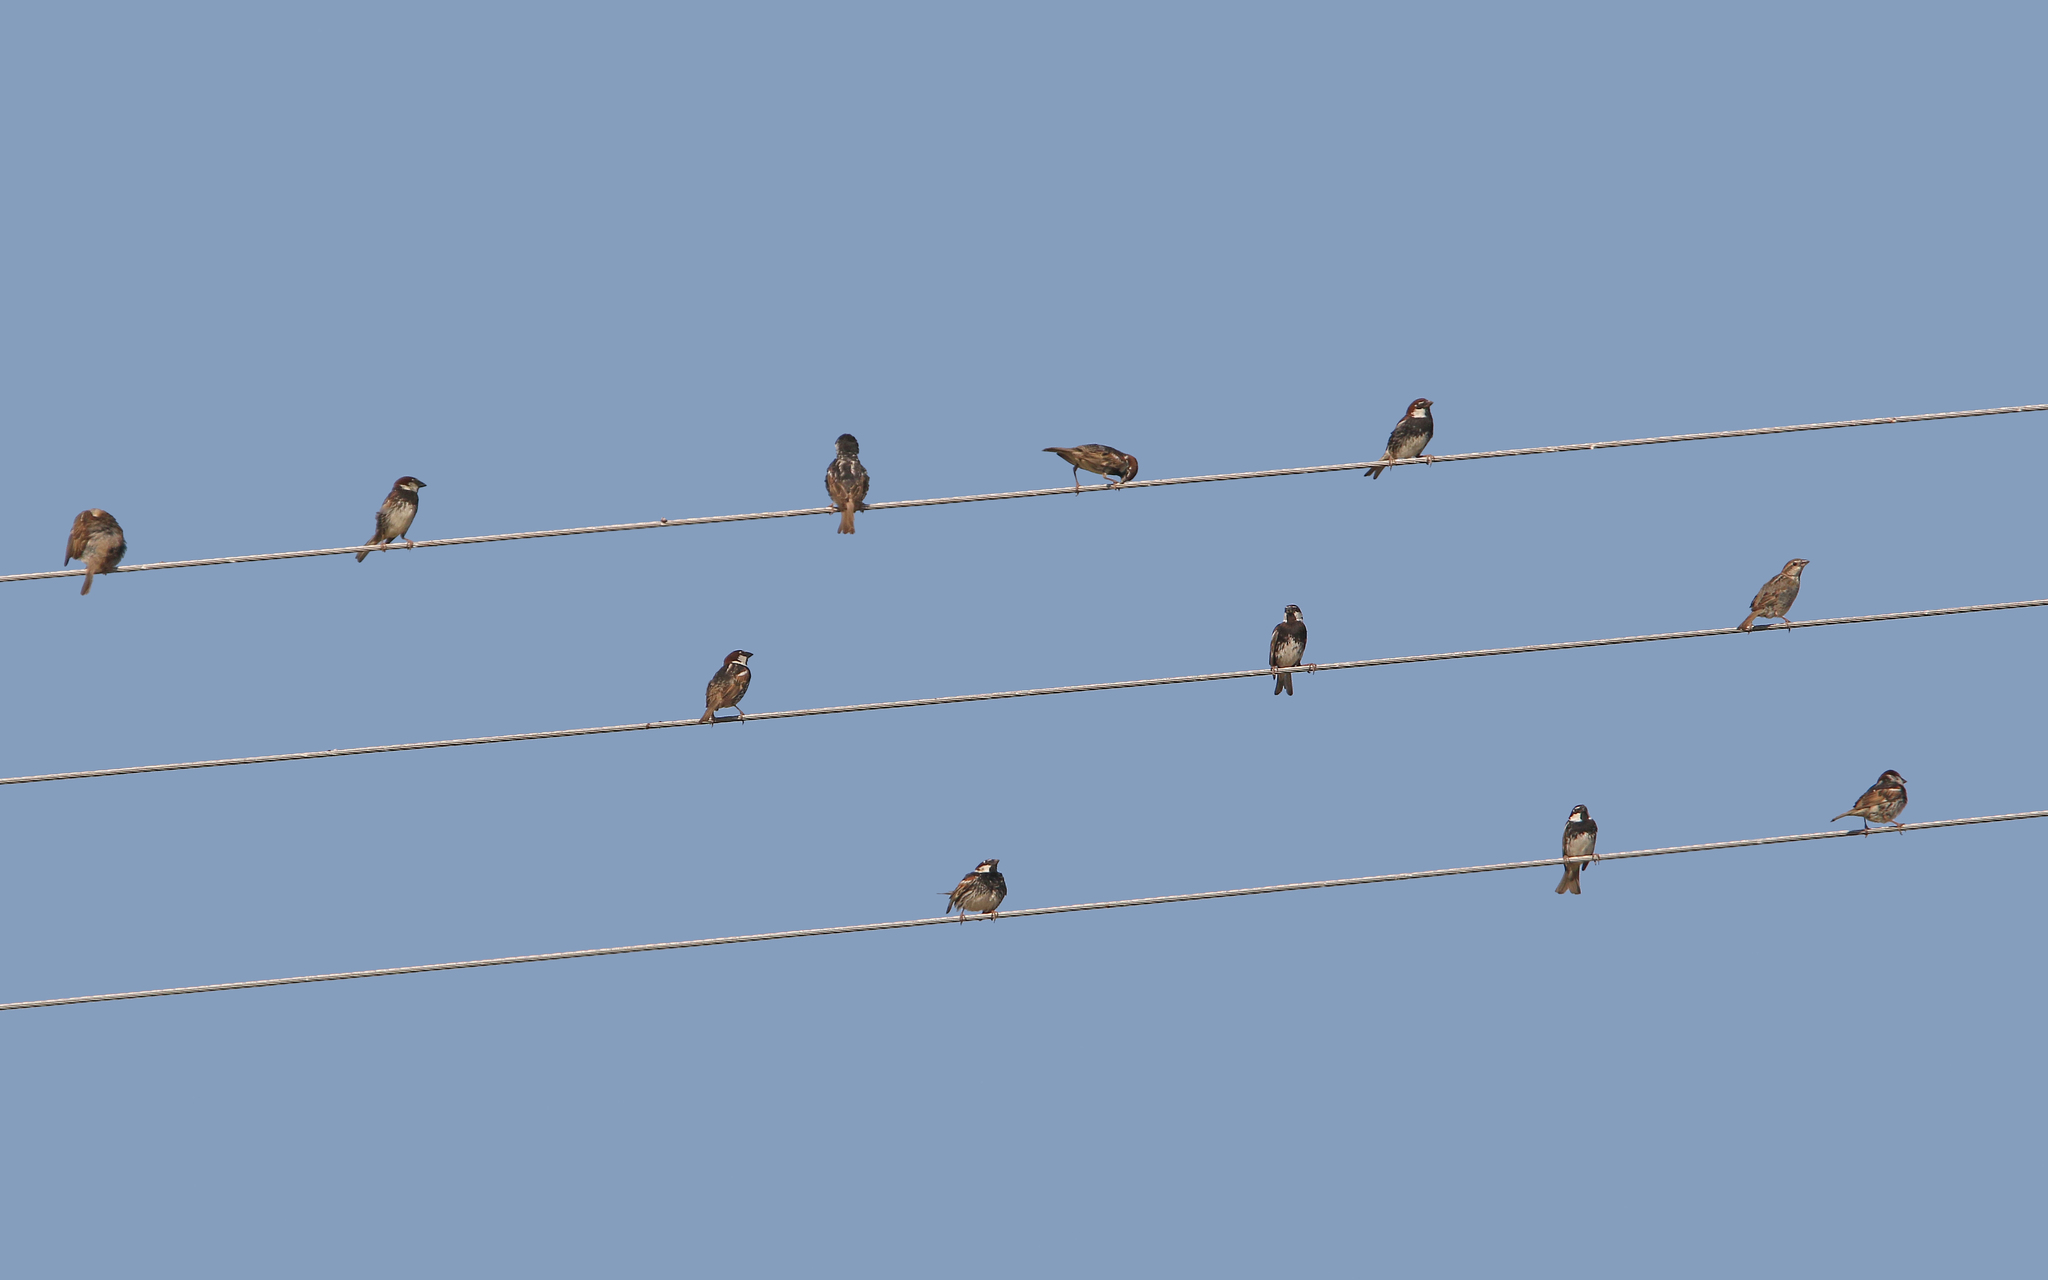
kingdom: Animalia
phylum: Chordata
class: Aves
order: Passeriformes
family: Passeridae
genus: Passer
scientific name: Passer hispaniolensis
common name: Spanish sparrow
